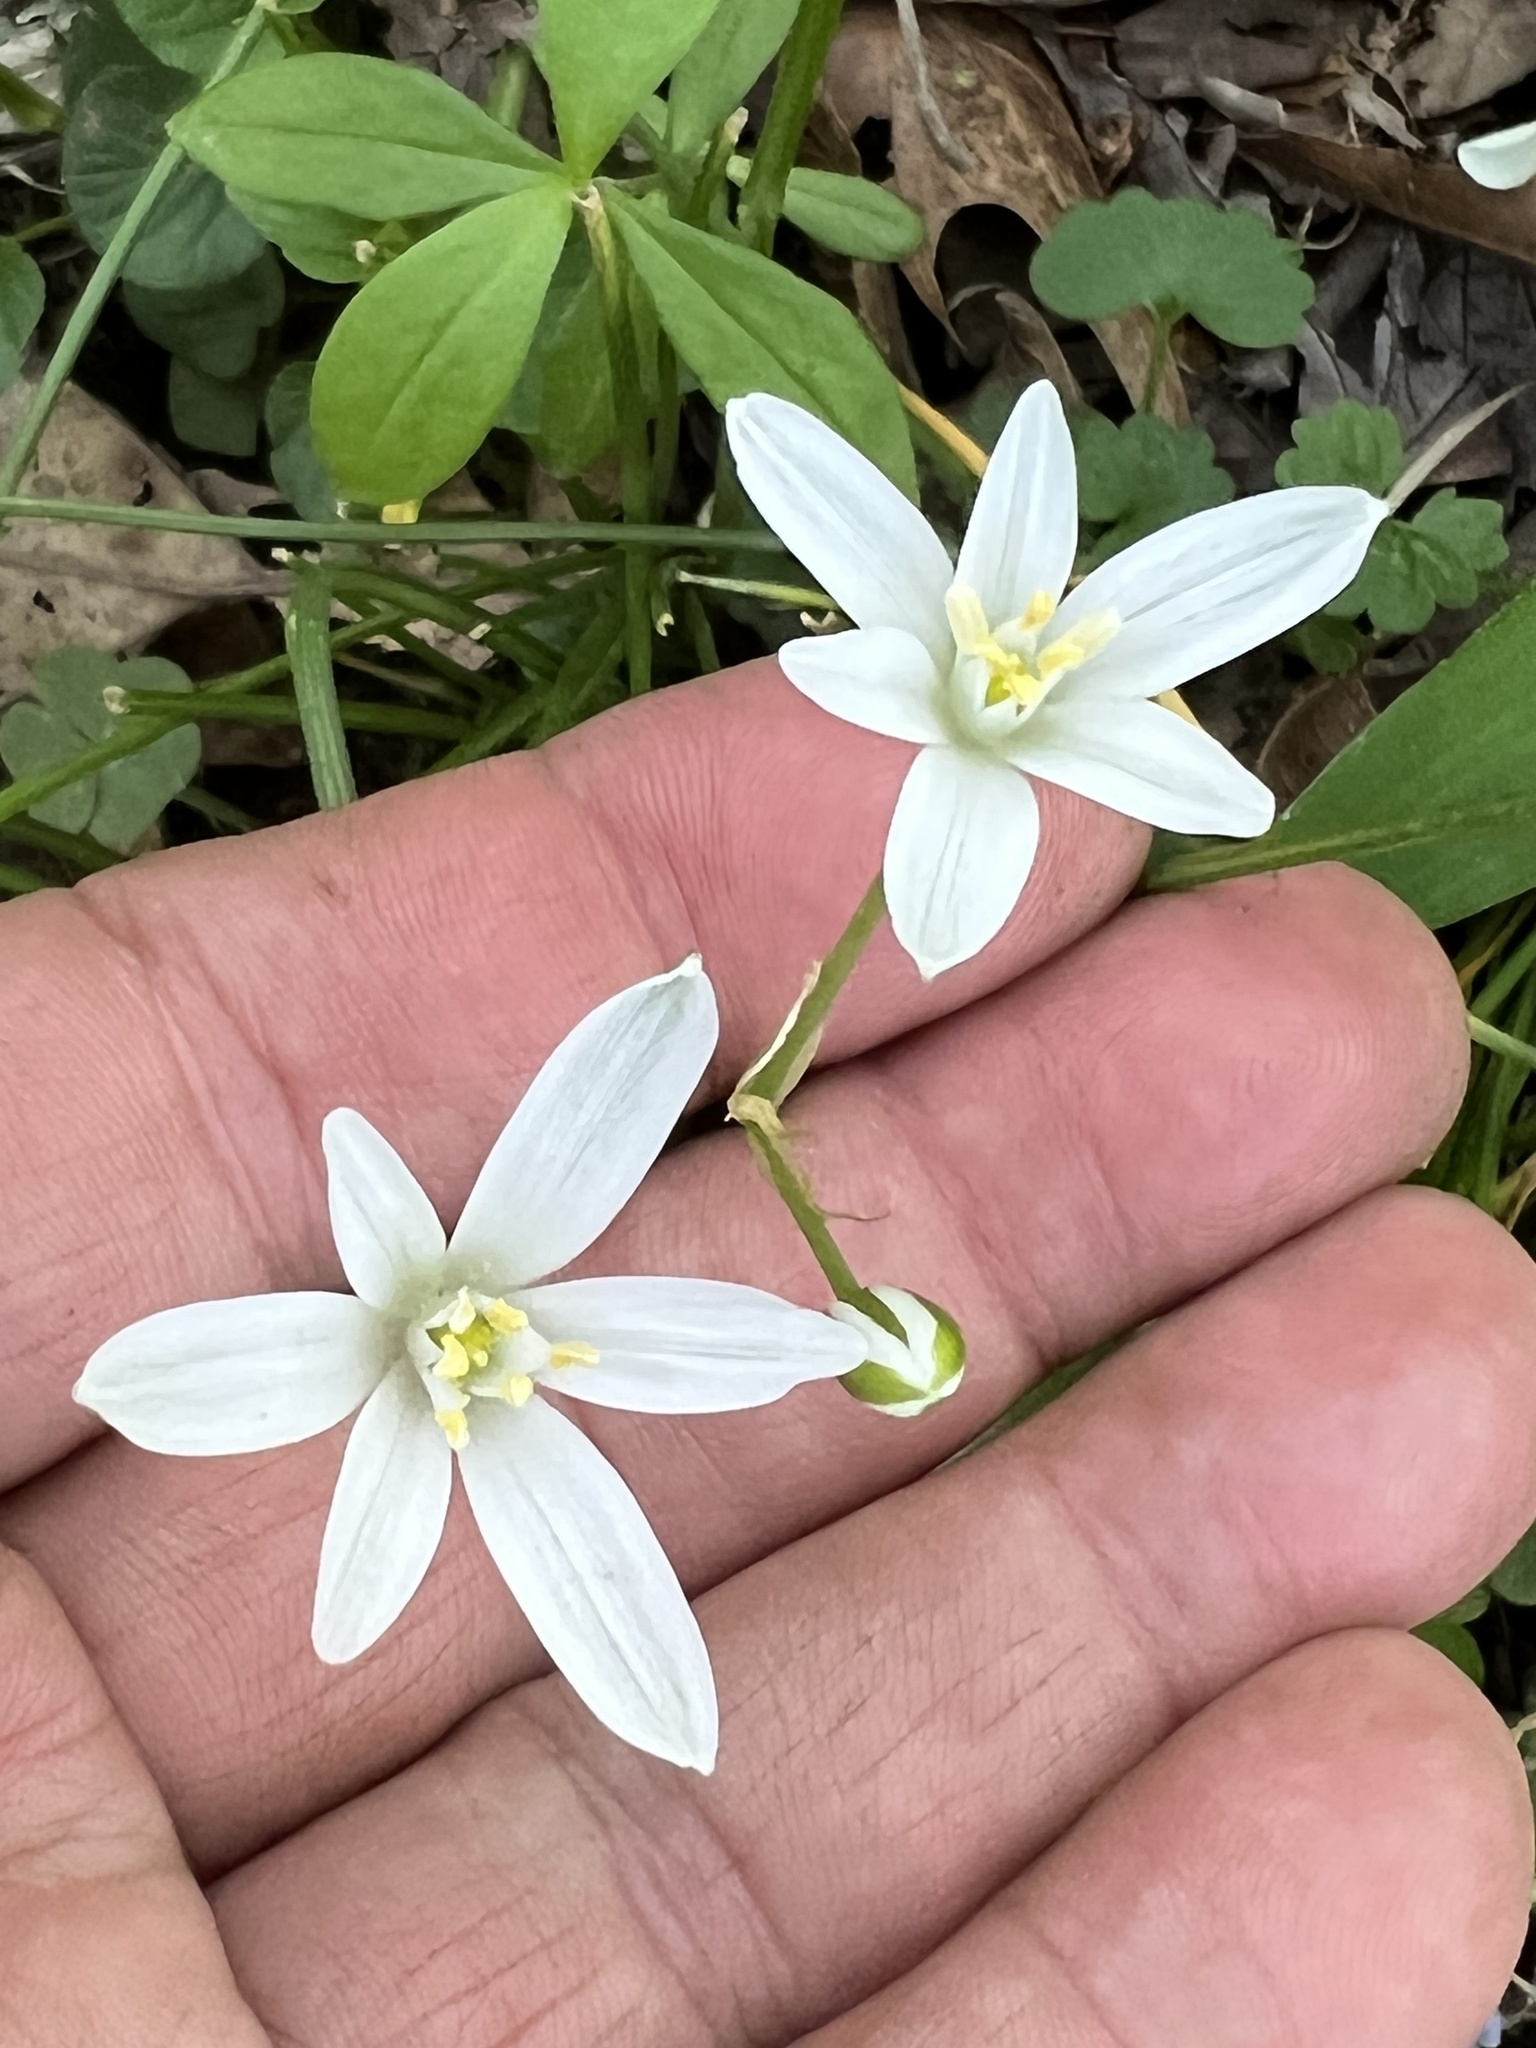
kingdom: Plantae
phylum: Tracheophyta
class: Liliopsida
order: Asparagales
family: Asparagaceae
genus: Ornithogalum
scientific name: Ornithogalum umbellatum
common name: Garden star-of-bethlehem
